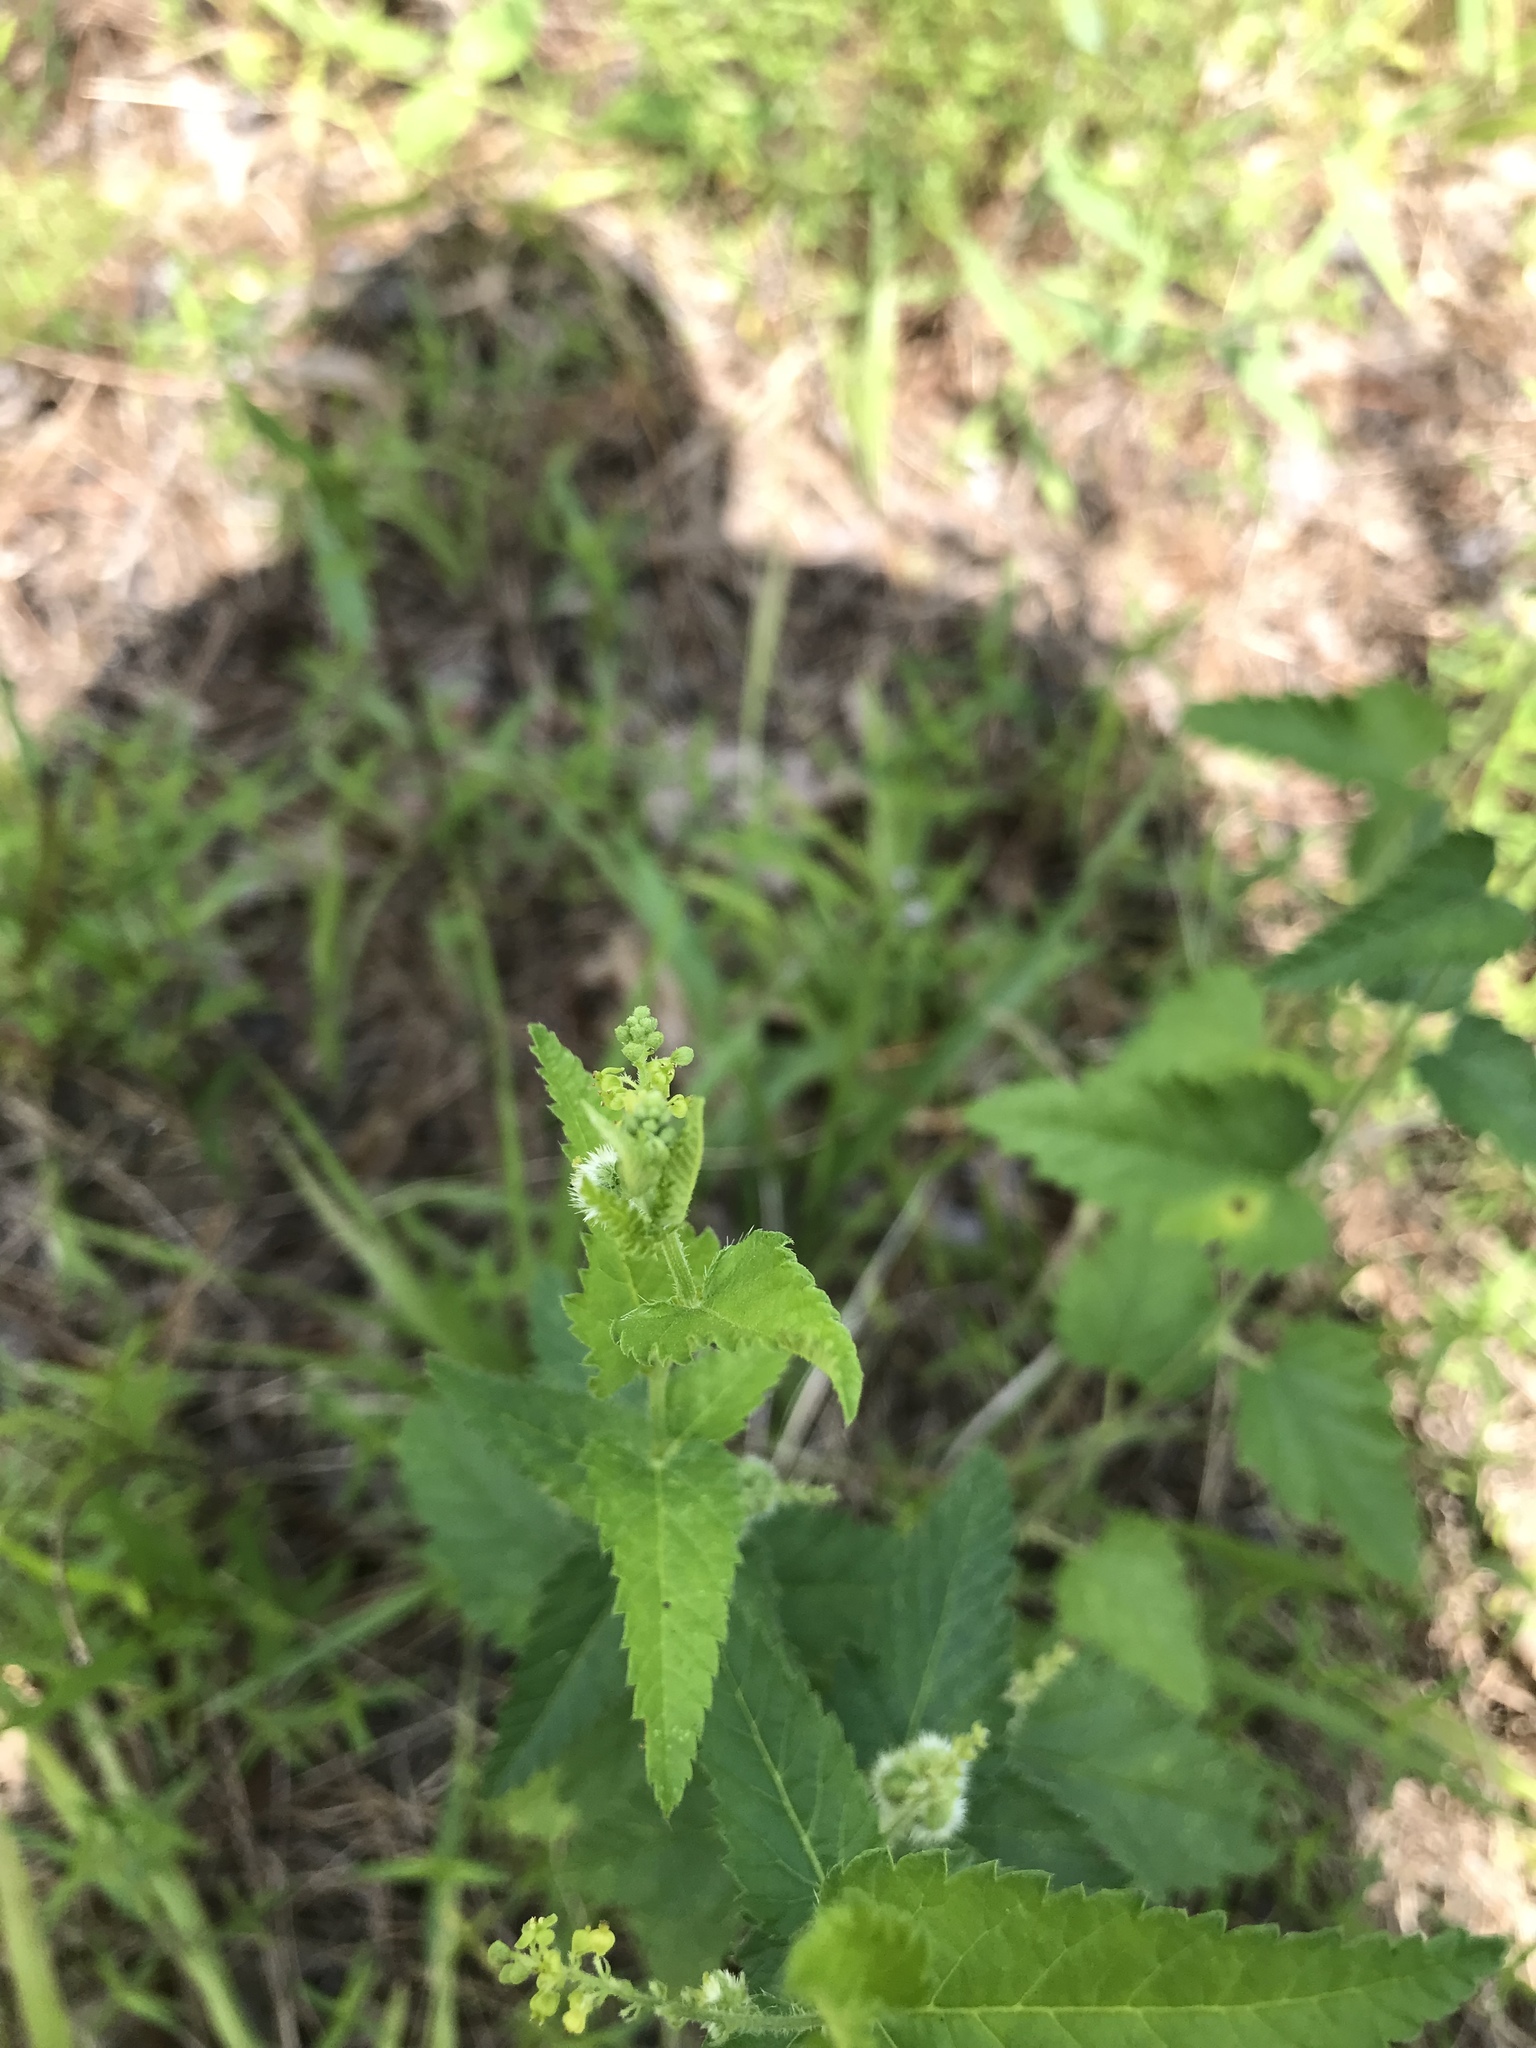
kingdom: Plantae
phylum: Tracheophyta
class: Magnoliopsida
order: Malpighiales
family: Euphorbiaceae
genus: Tragia
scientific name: Tragia urticifolia
